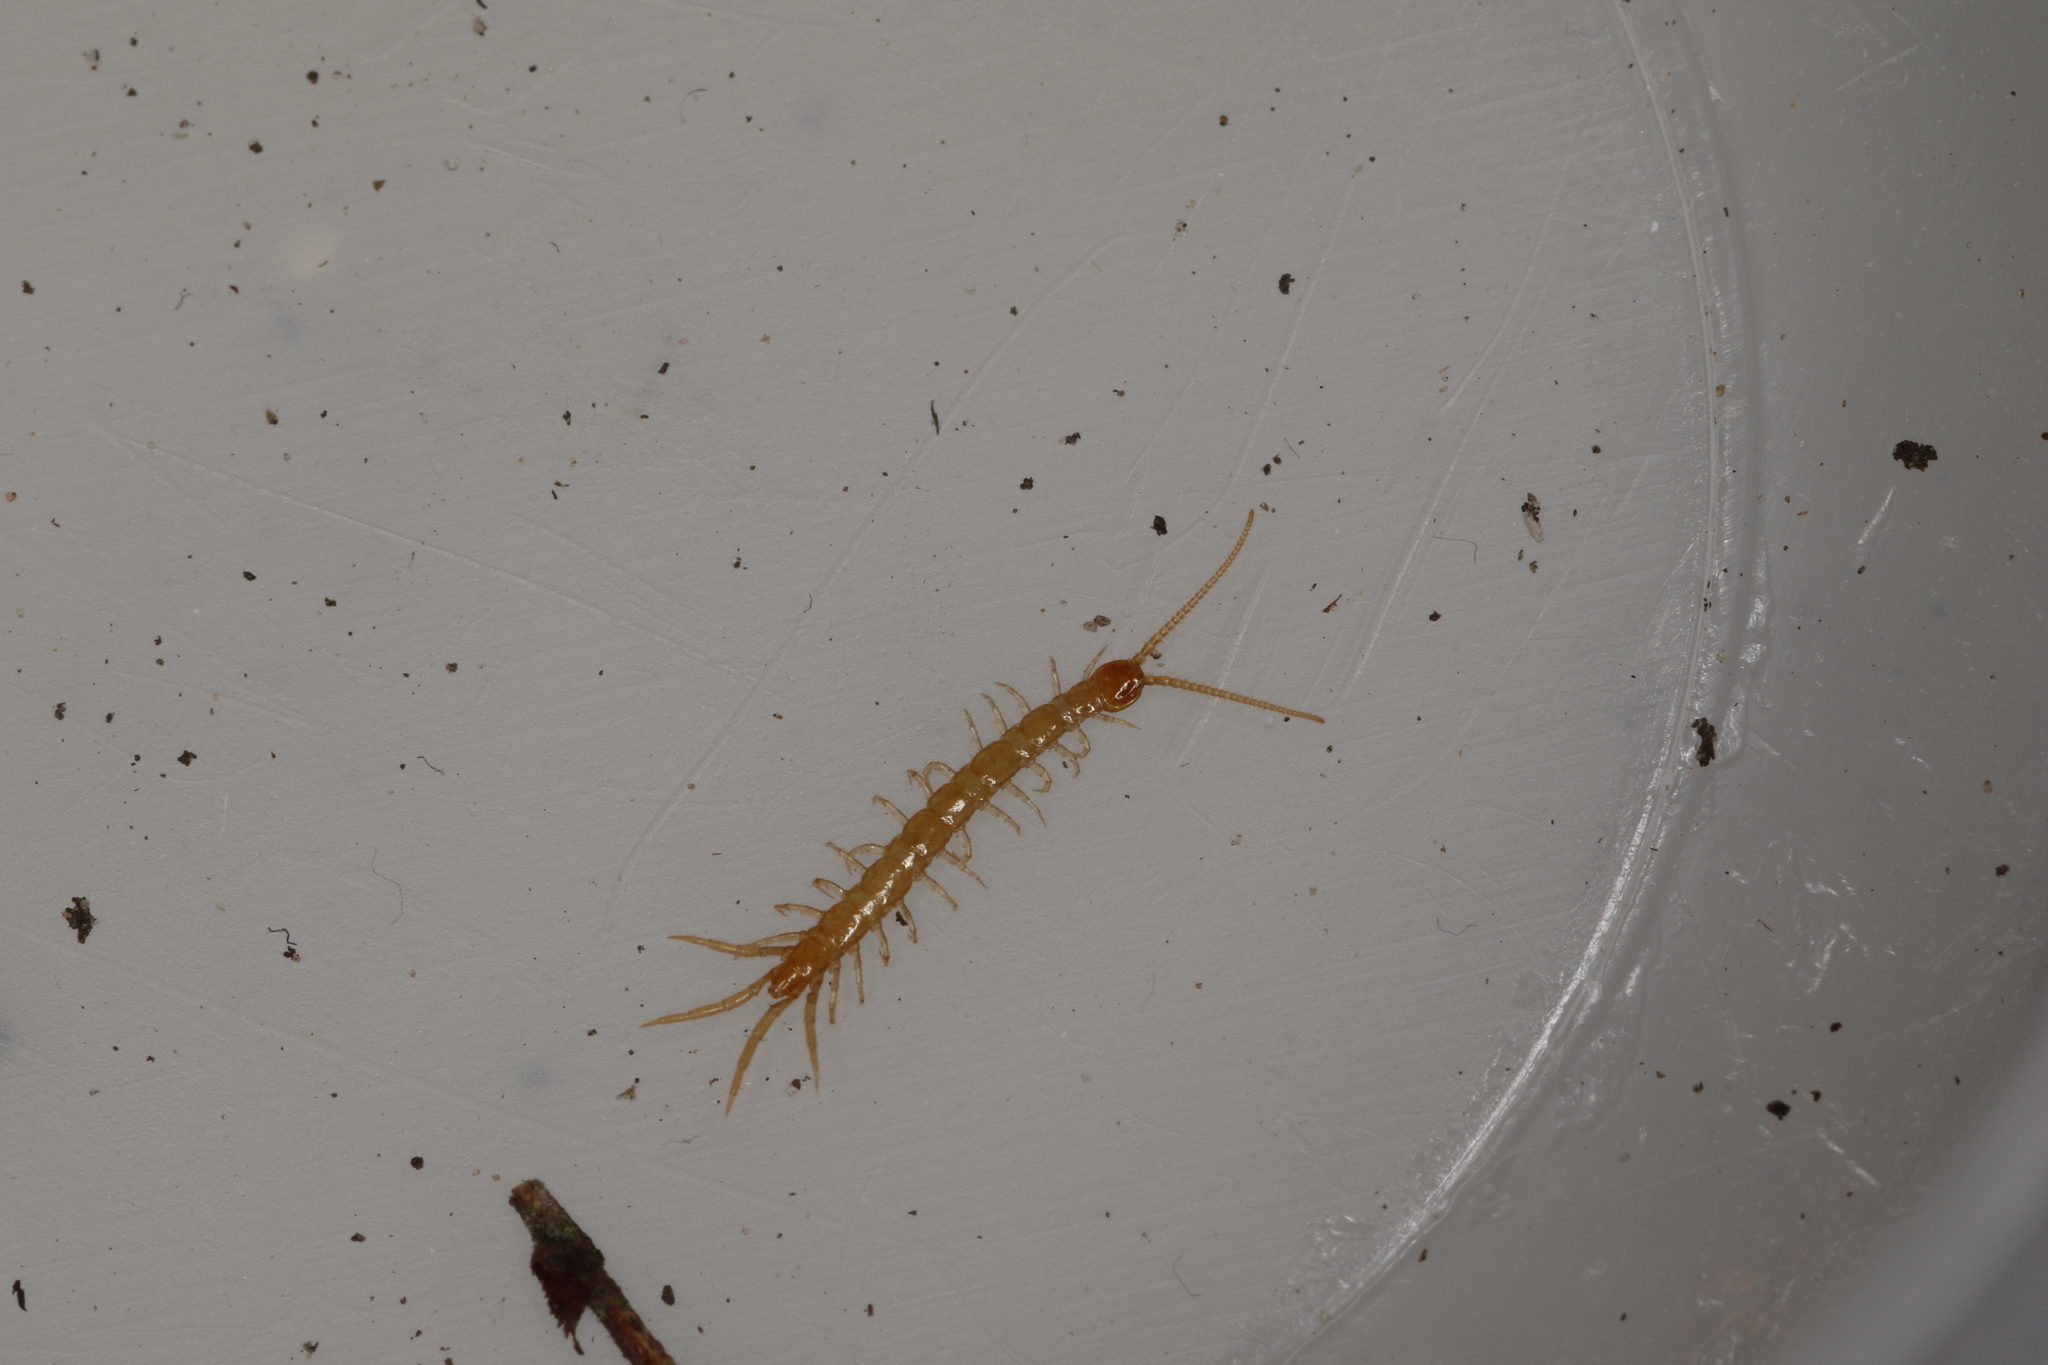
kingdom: Animalia
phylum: Arthropoda
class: Chilopoda
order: Lithobiomorpha
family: Lithobiidae
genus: Lithobius
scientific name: Lithobius microps
